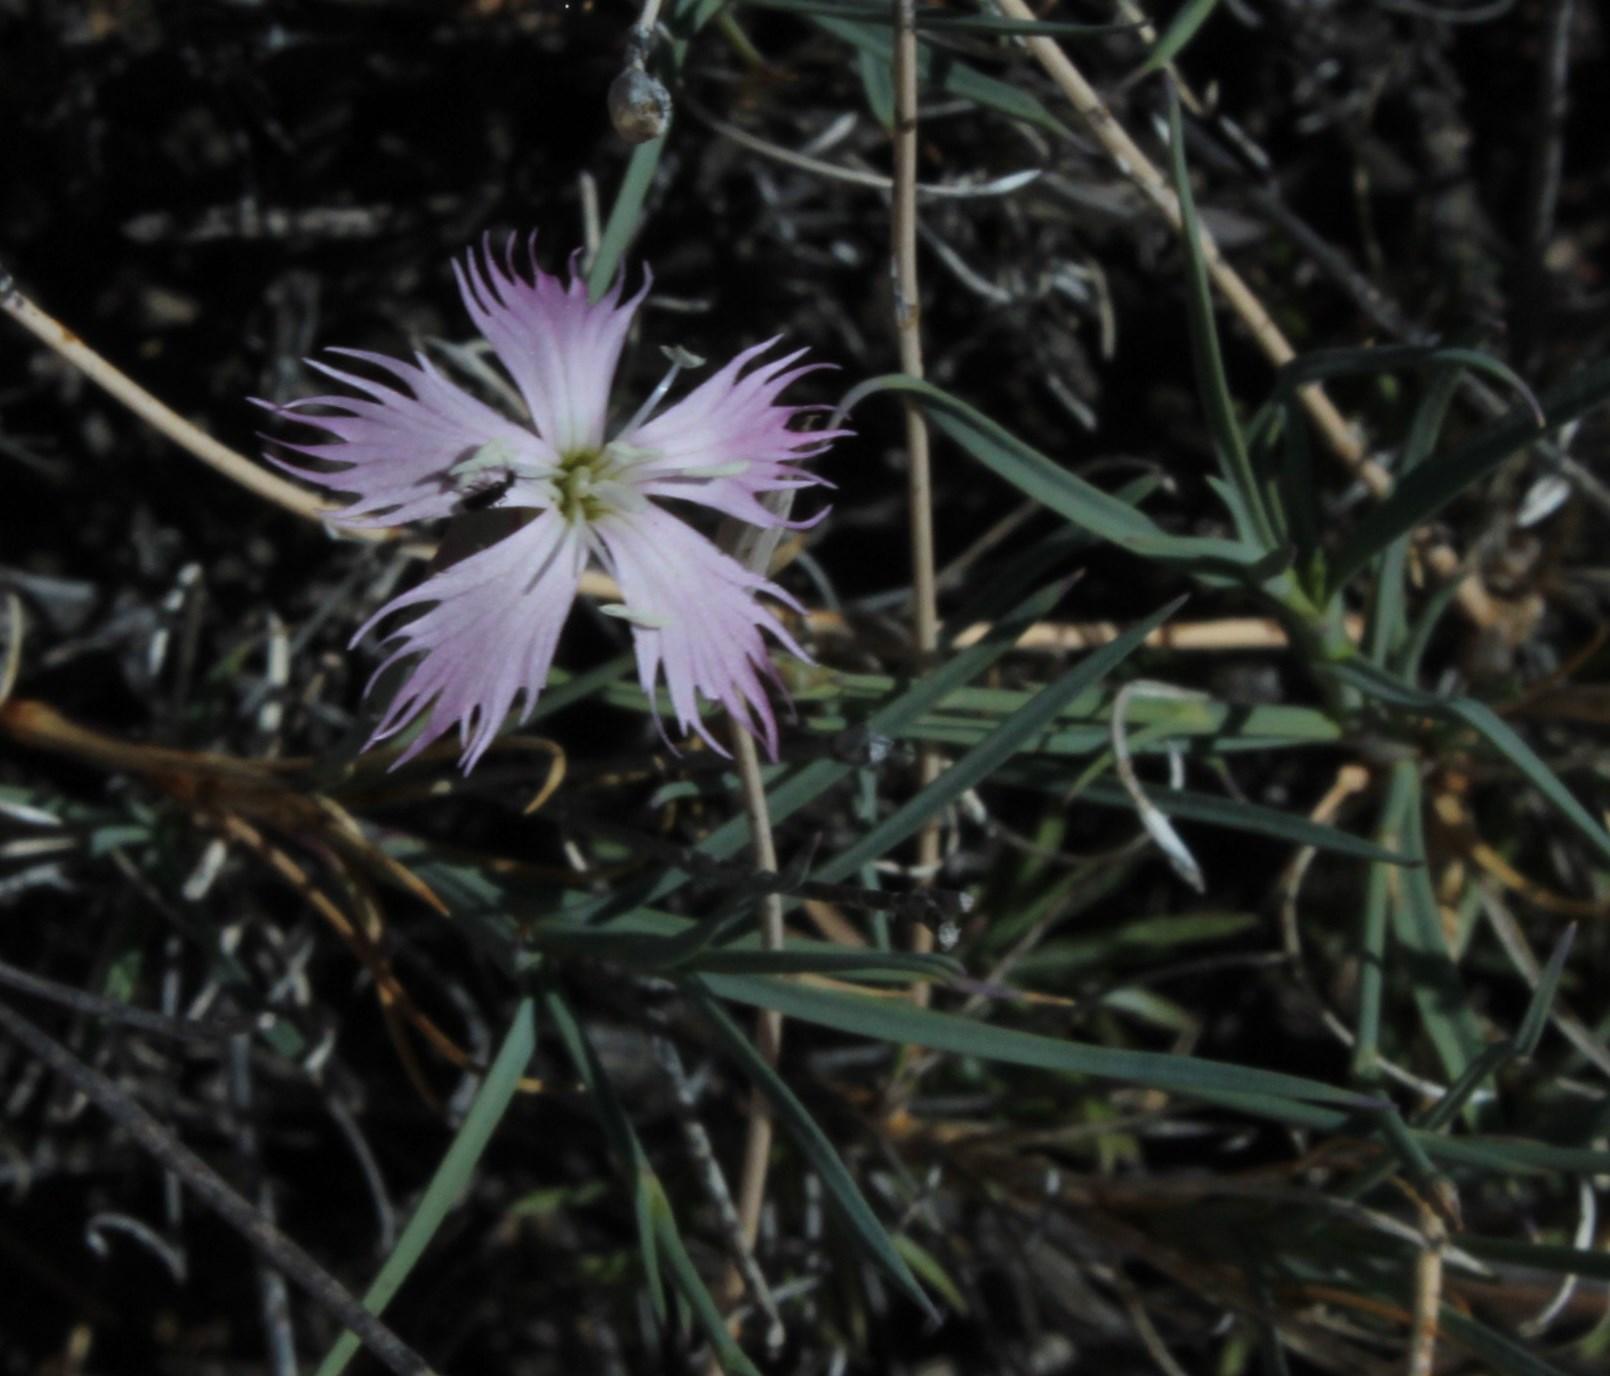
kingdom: Plantae
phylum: Tracheophyta
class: Magnoliopsida
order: Caryophyllales
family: Caryophyllaceae
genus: Dianthus
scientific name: Dianthus namaensis
